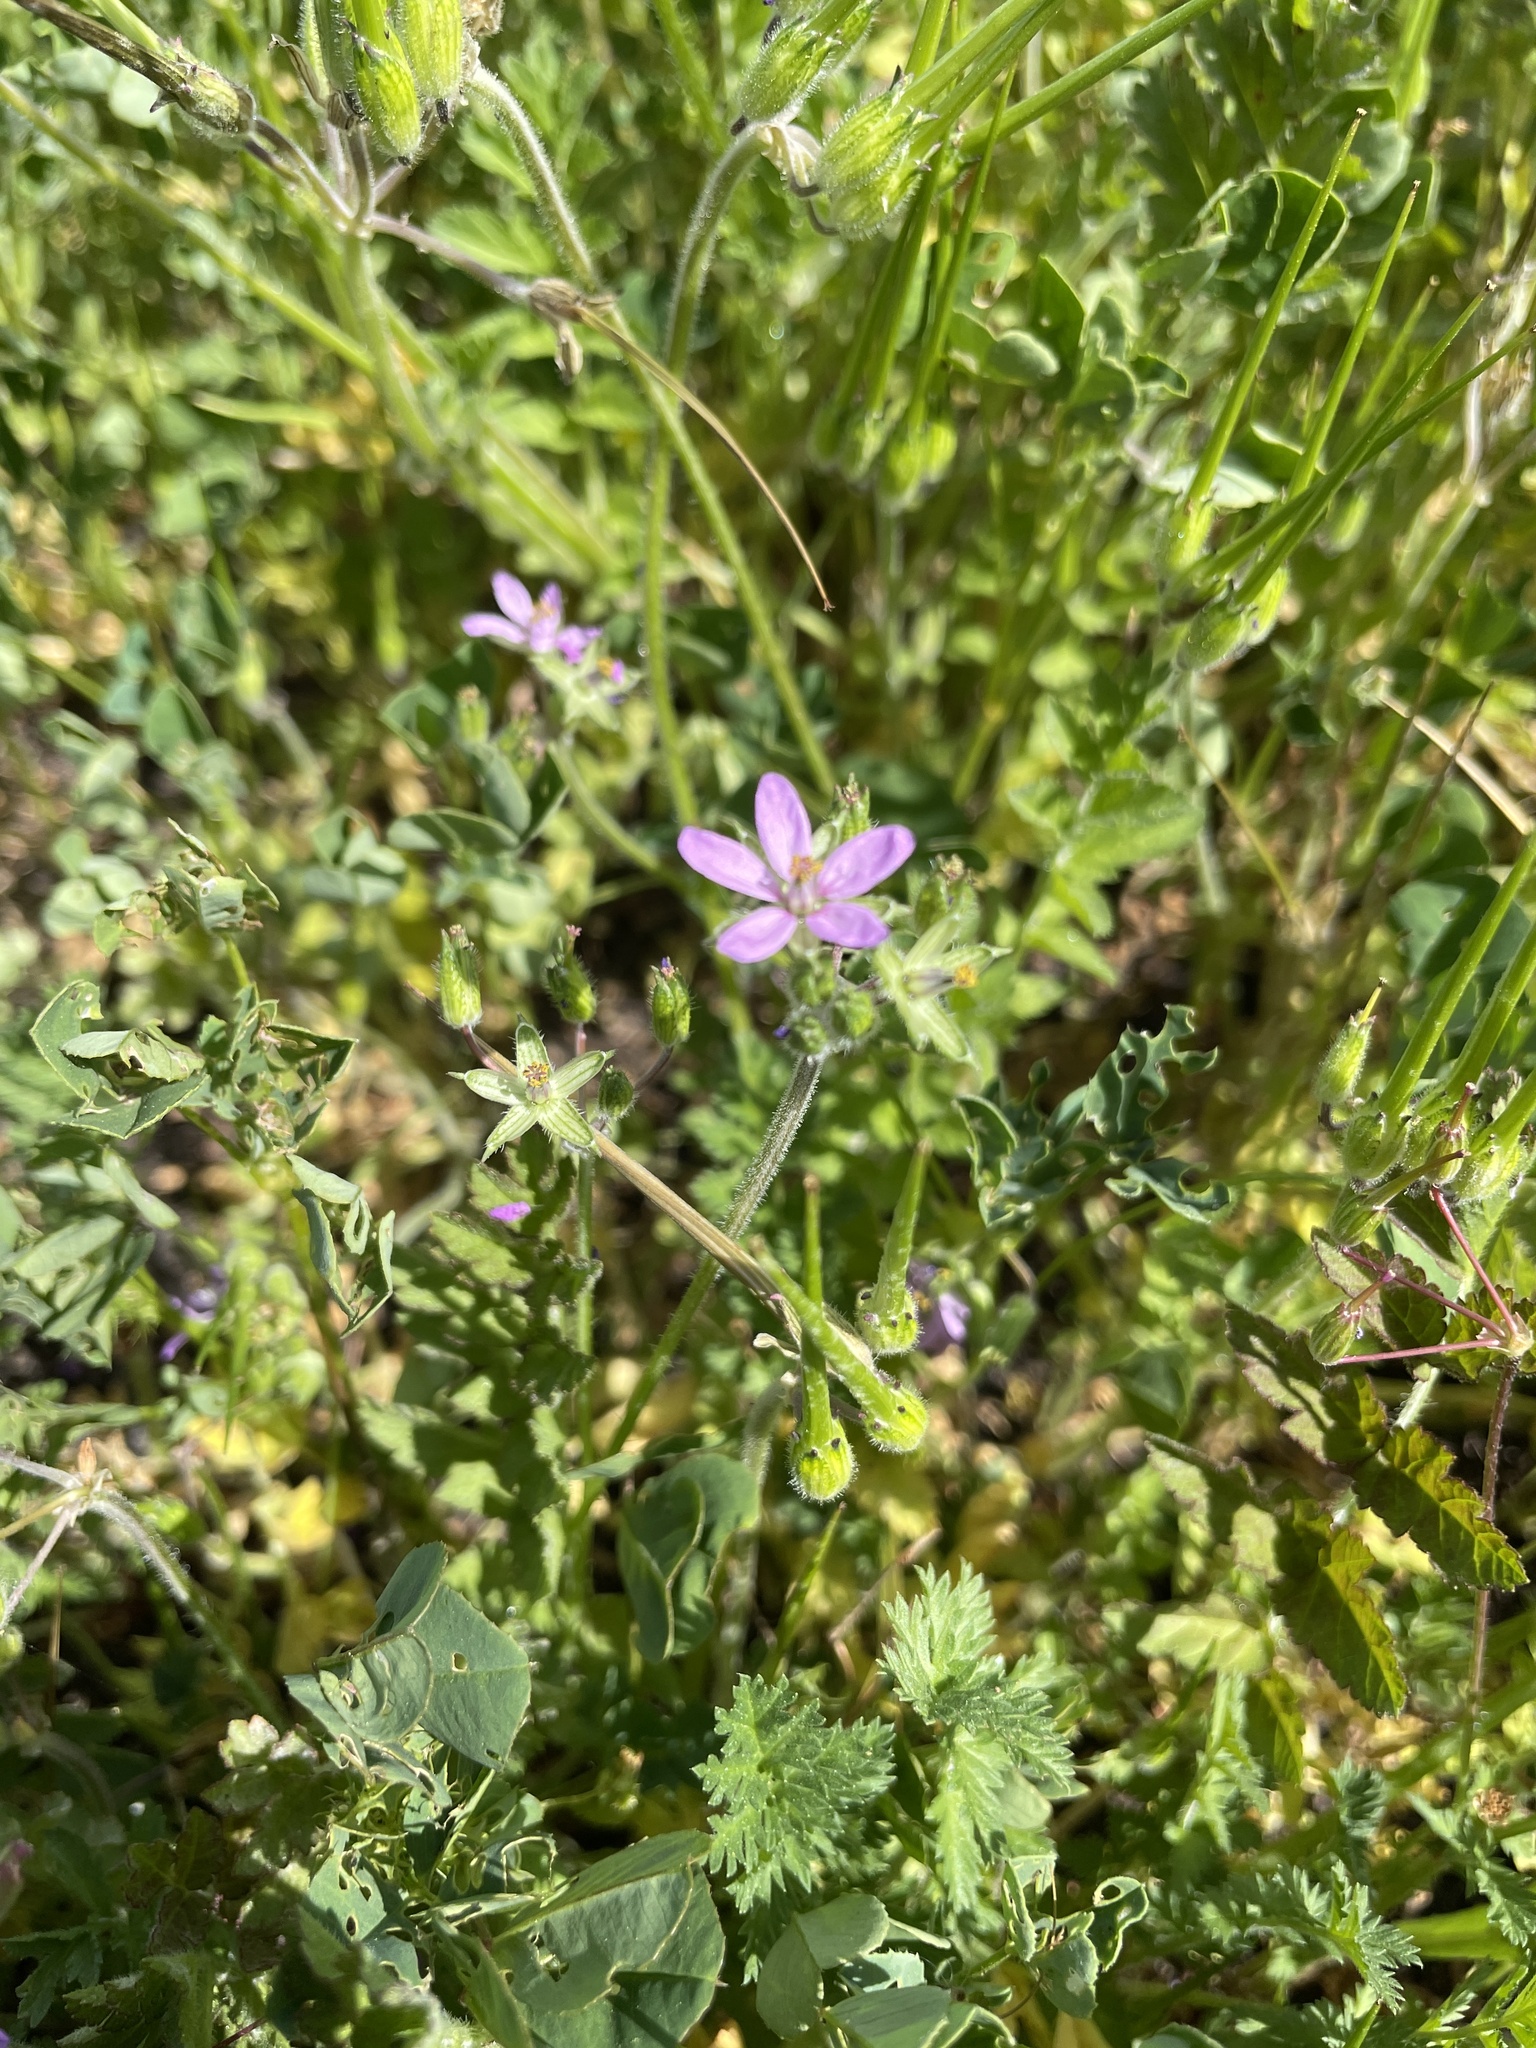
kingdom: Plantae
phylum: Tracheophyta
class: Magnoliopsida
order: Geraniales
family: Geraniaceae
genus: Erodium
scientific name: Erodium
